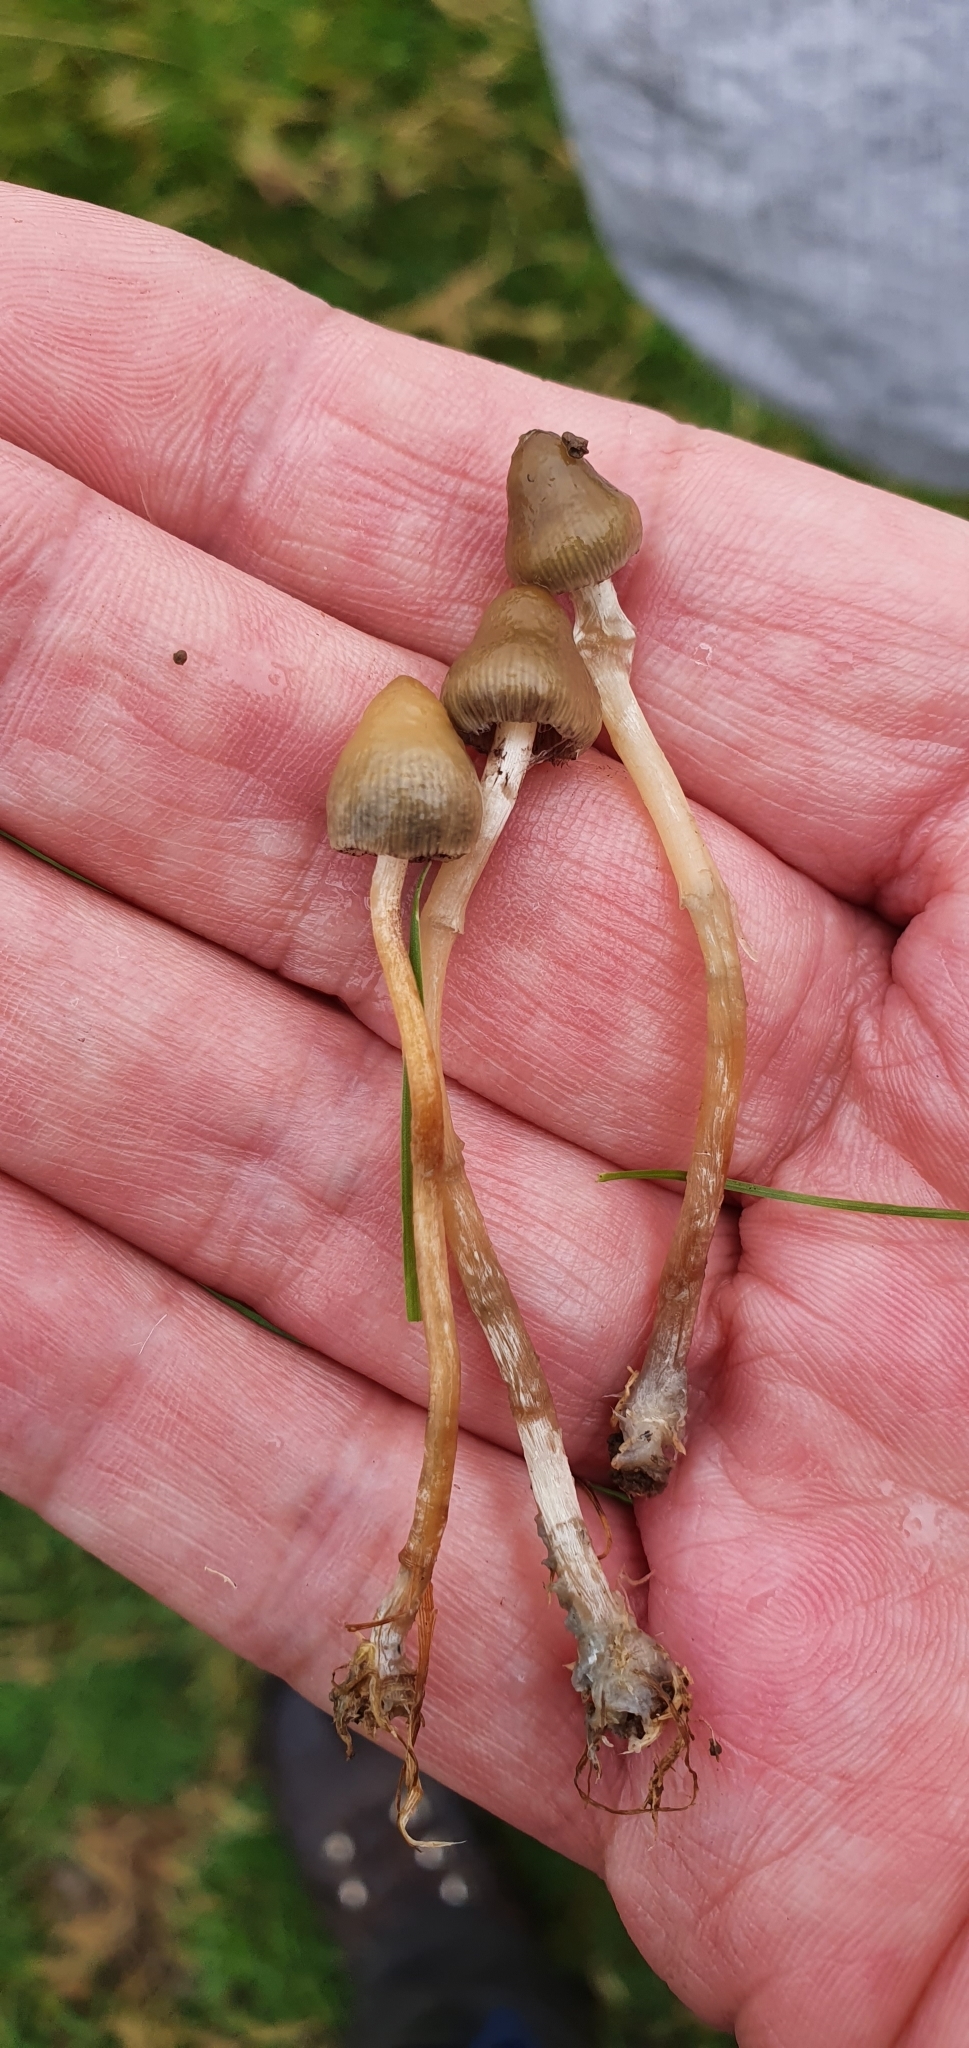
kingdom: Fungi
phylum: Basidiomycota
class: Agaricomycetes
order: Agaricales
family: Hymenogastraceae
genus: Psilocybe
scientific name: Psilocybe semilanceata
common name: Liberty cap
